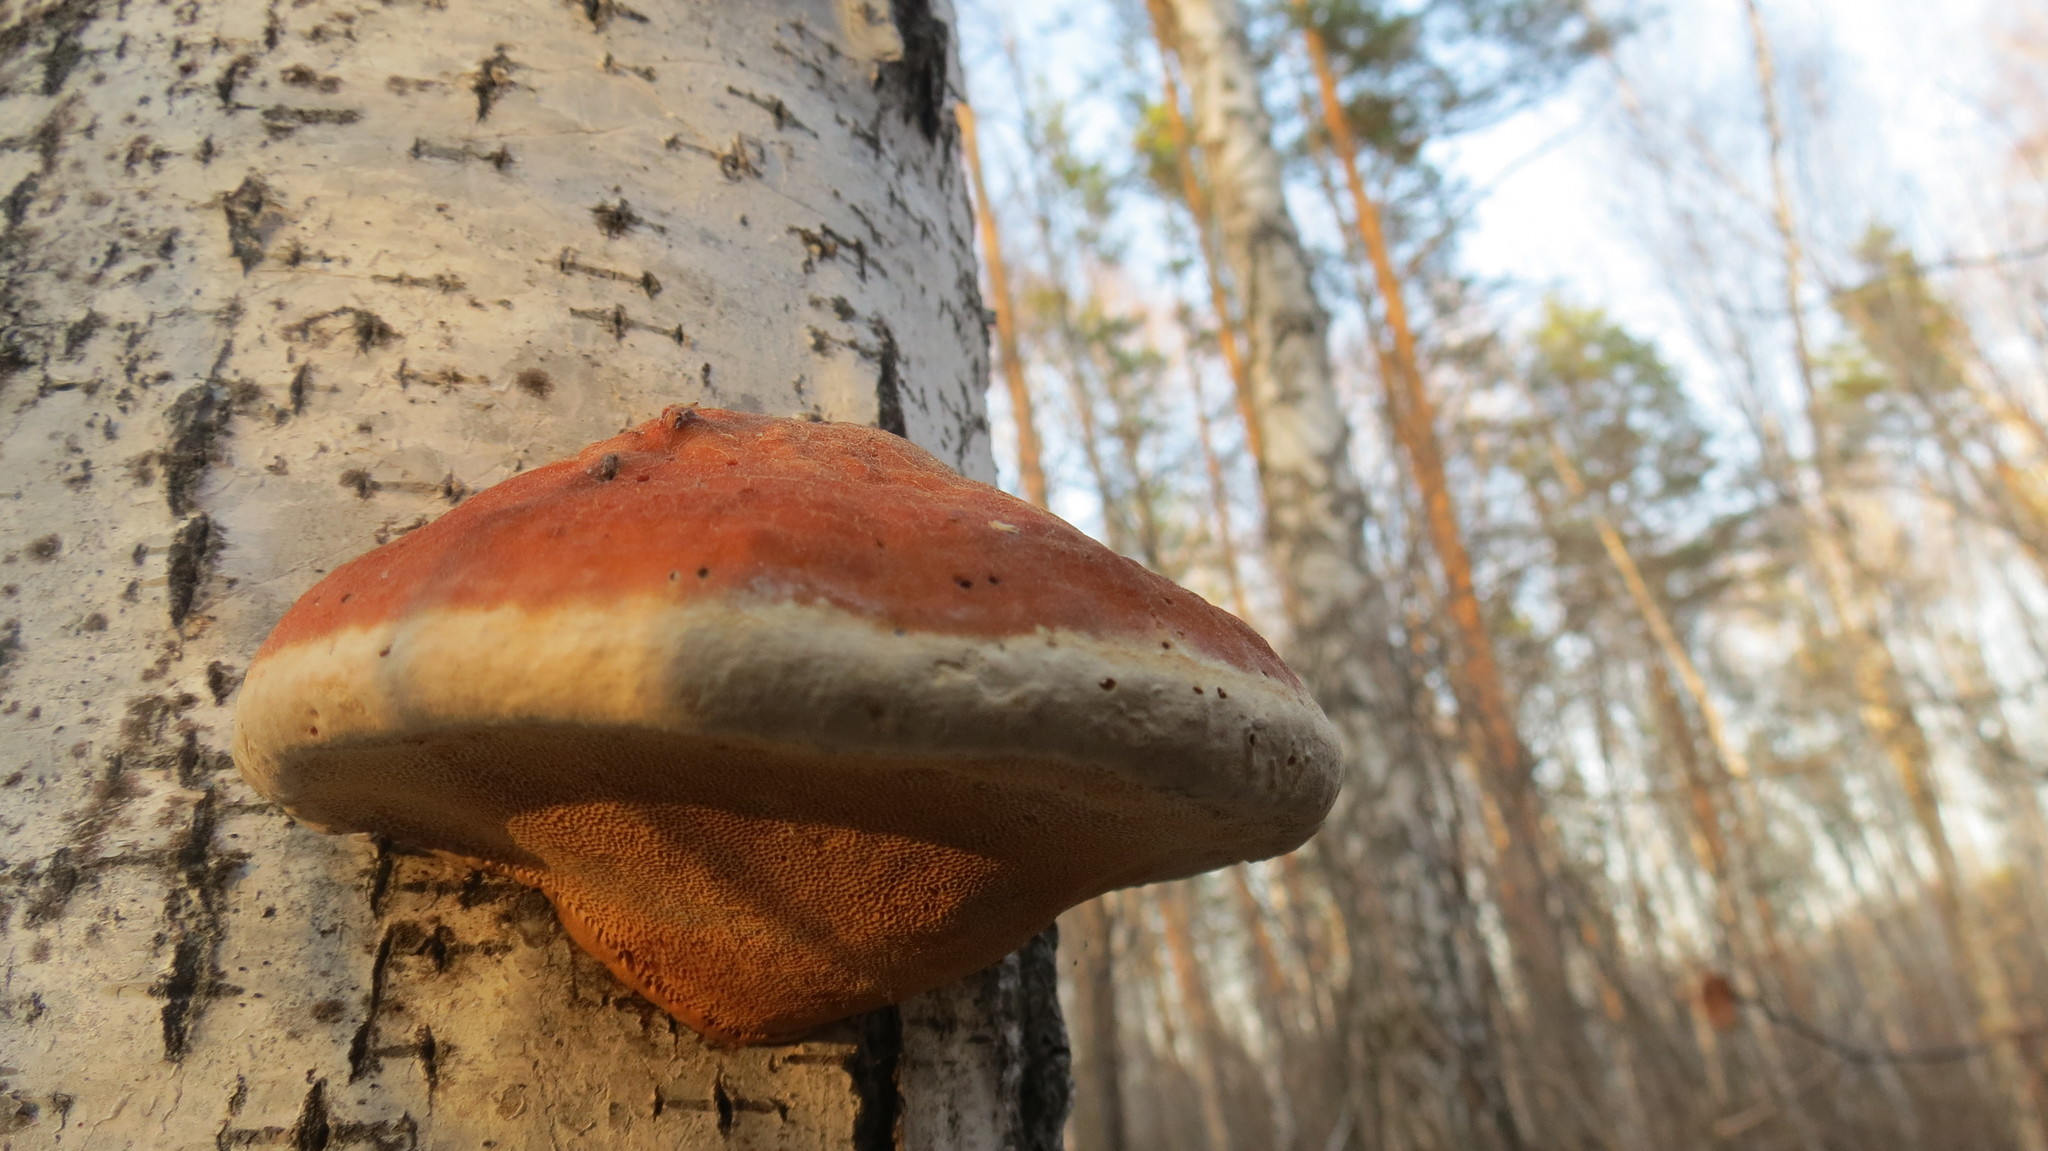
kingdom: Fungi
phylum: Basidiomycota
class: Agaricomycetes
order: Polyporales
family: Fomitopsidaceae
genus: Fomitopsis
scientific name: Fomitopsis pinicola
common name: Red-belted bracket
